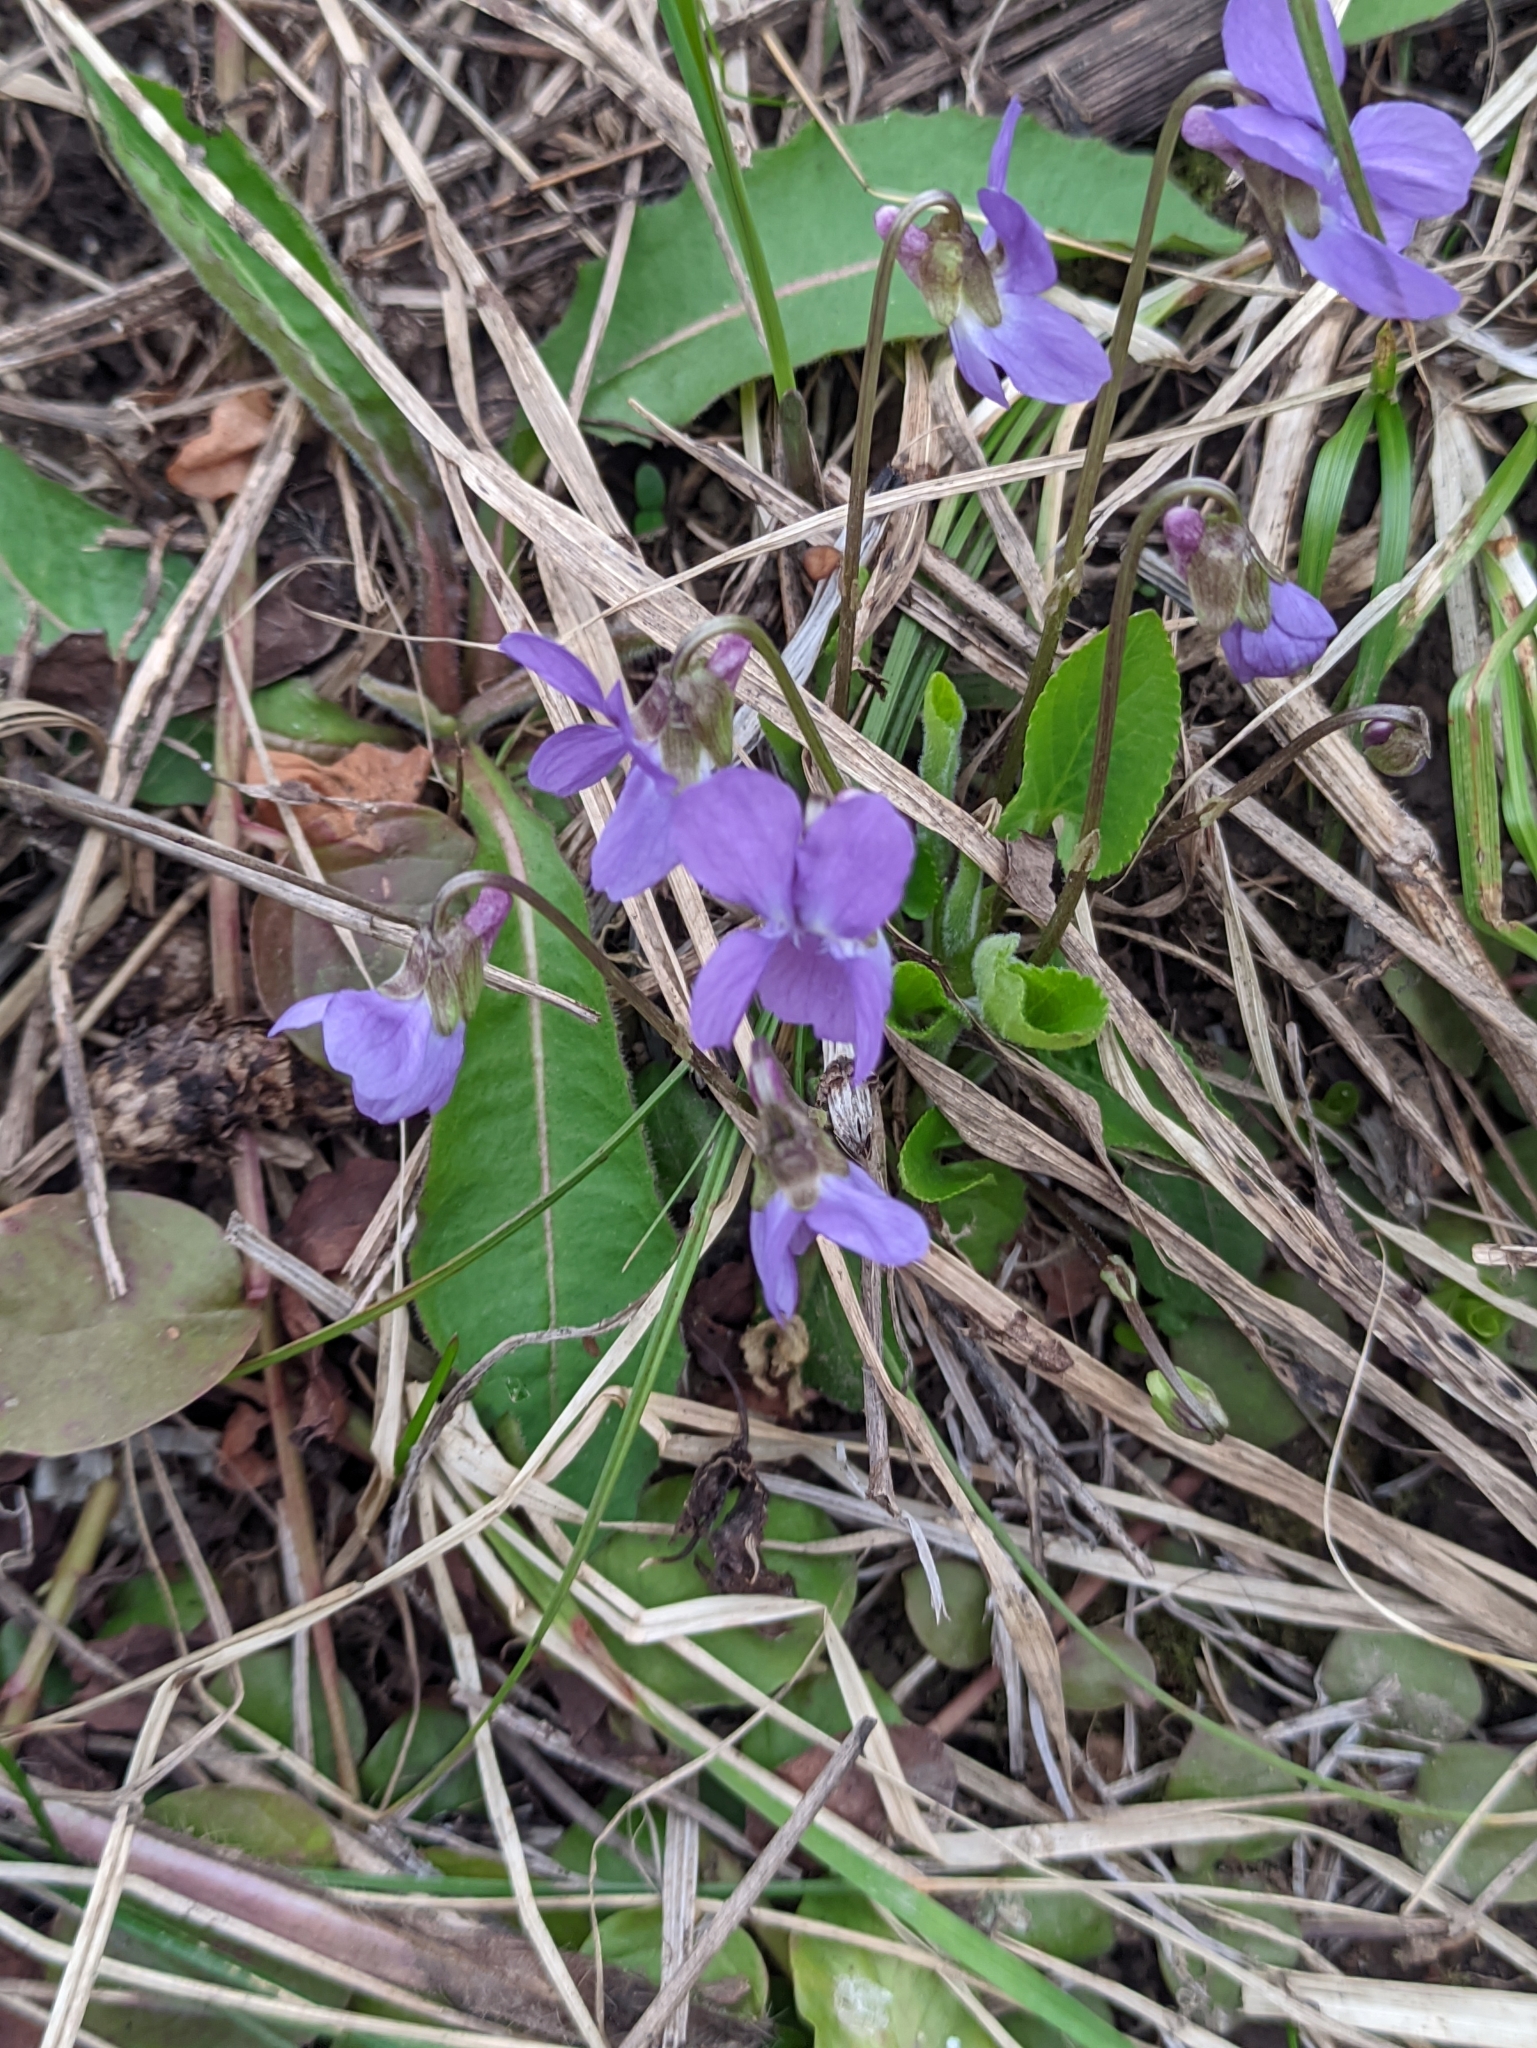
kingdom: Plantae
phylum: Tracheophyta
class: Magnoliopsida
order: Malpighiales
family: Violaceae
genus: Viola
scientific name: Viola hirta
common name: Hairy violet
